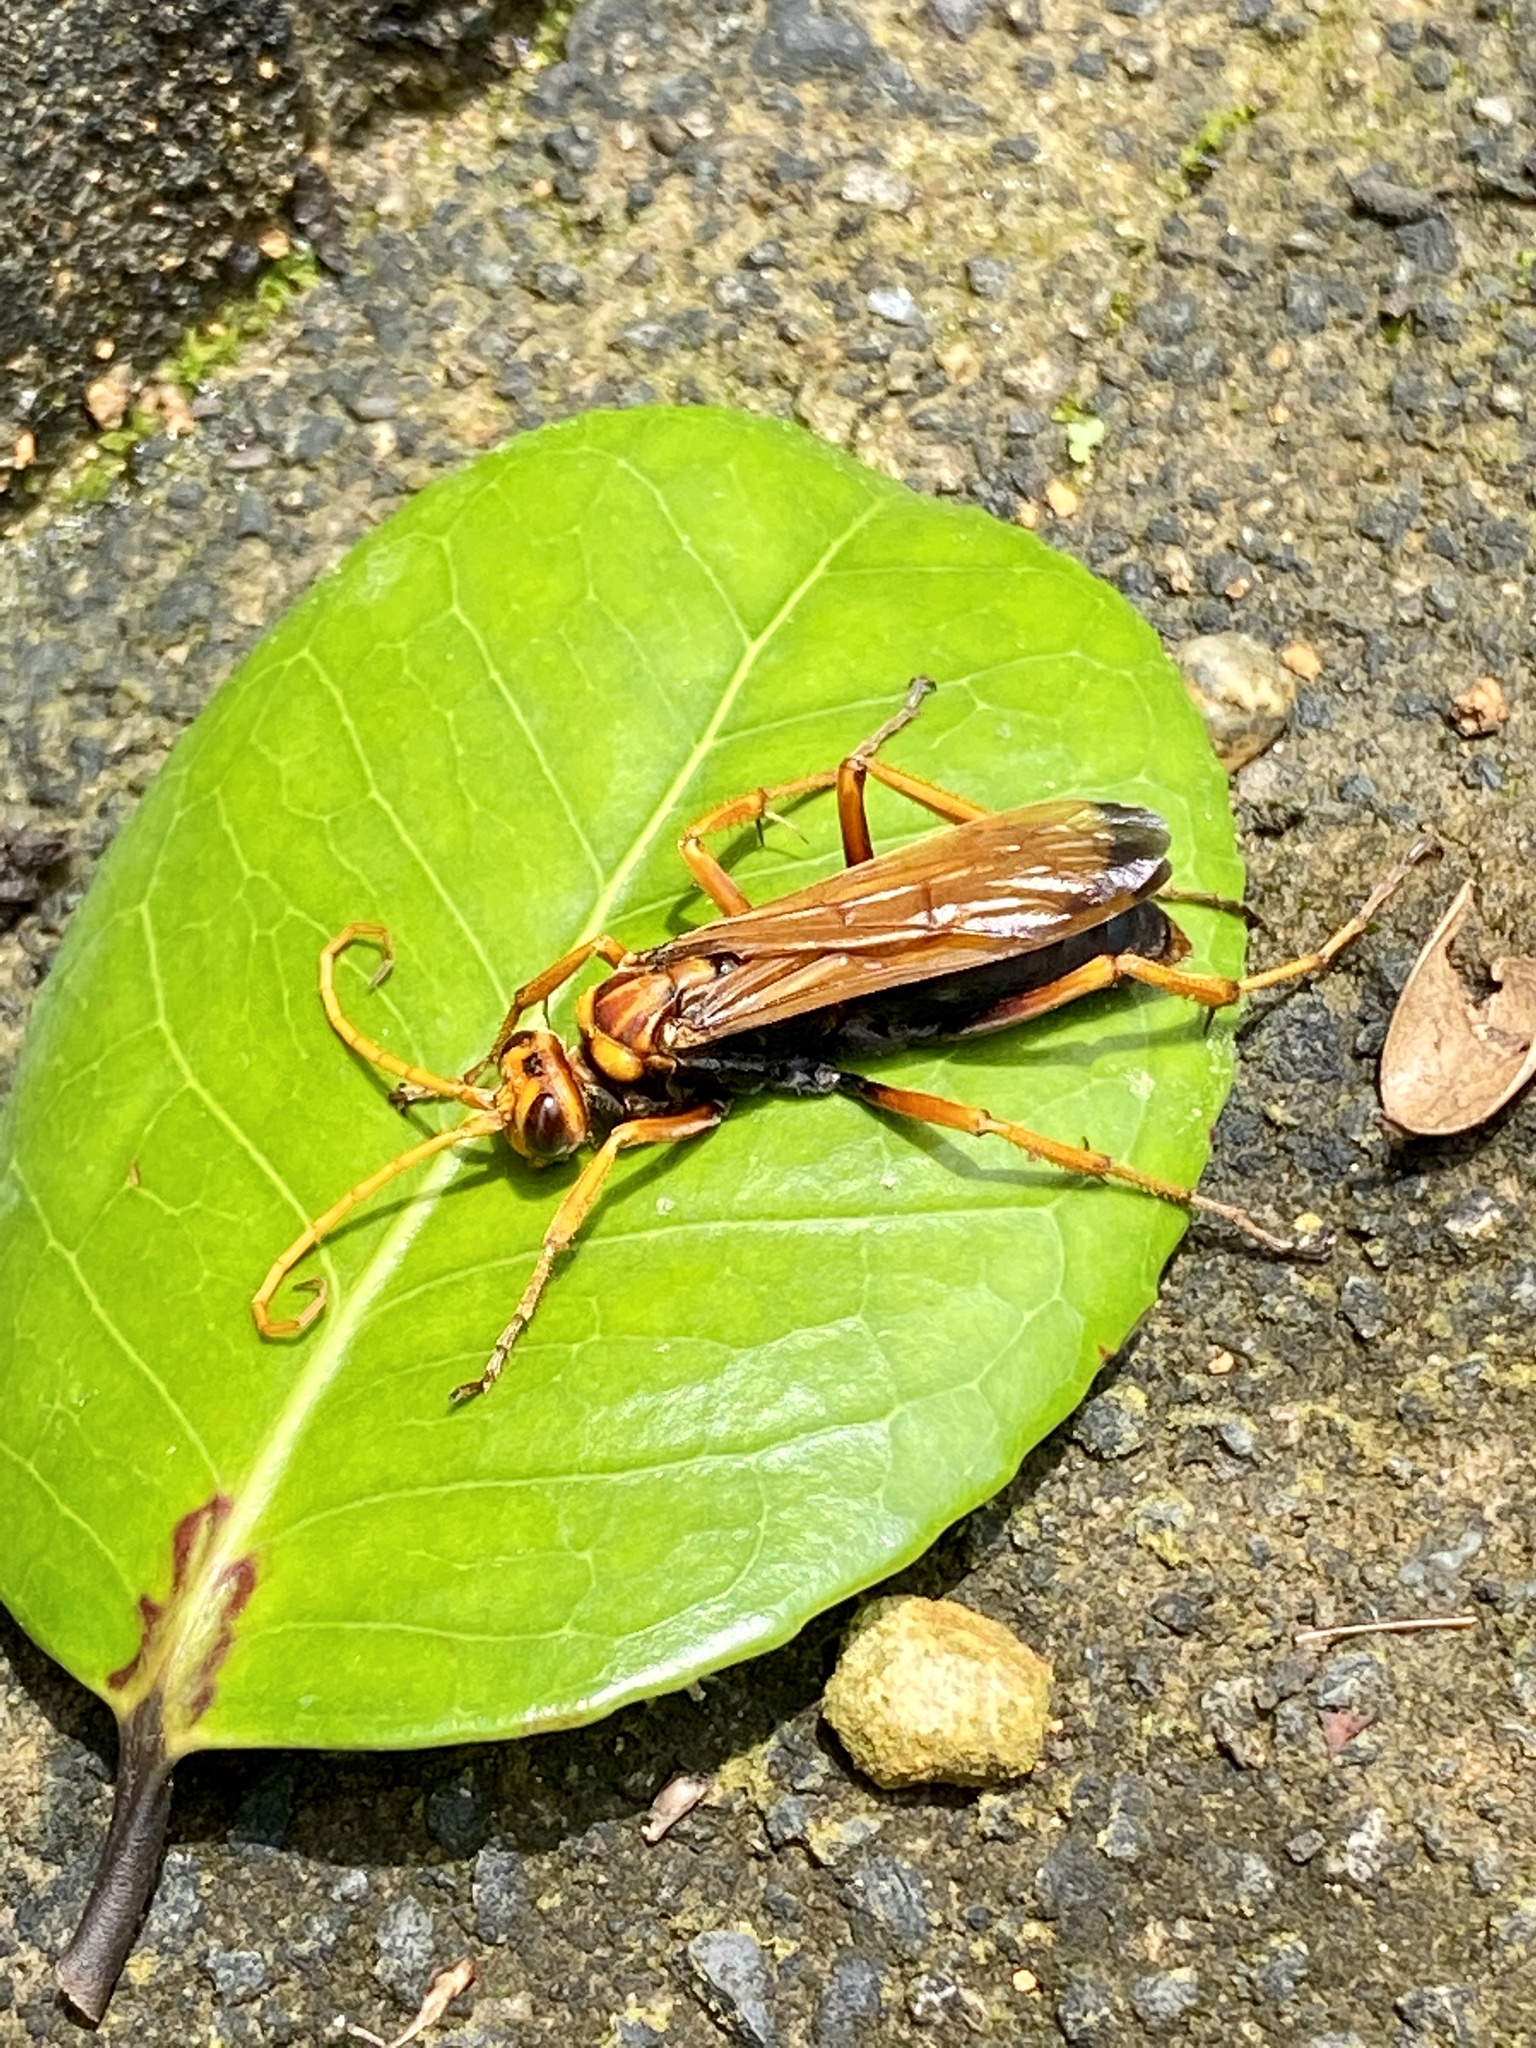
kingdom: Animalia
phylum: Arthropoda
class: Insecta
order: Hymenoptera
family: Pompilidae
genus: Cyphononyx
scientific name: Cyphononyx fulvognathus
